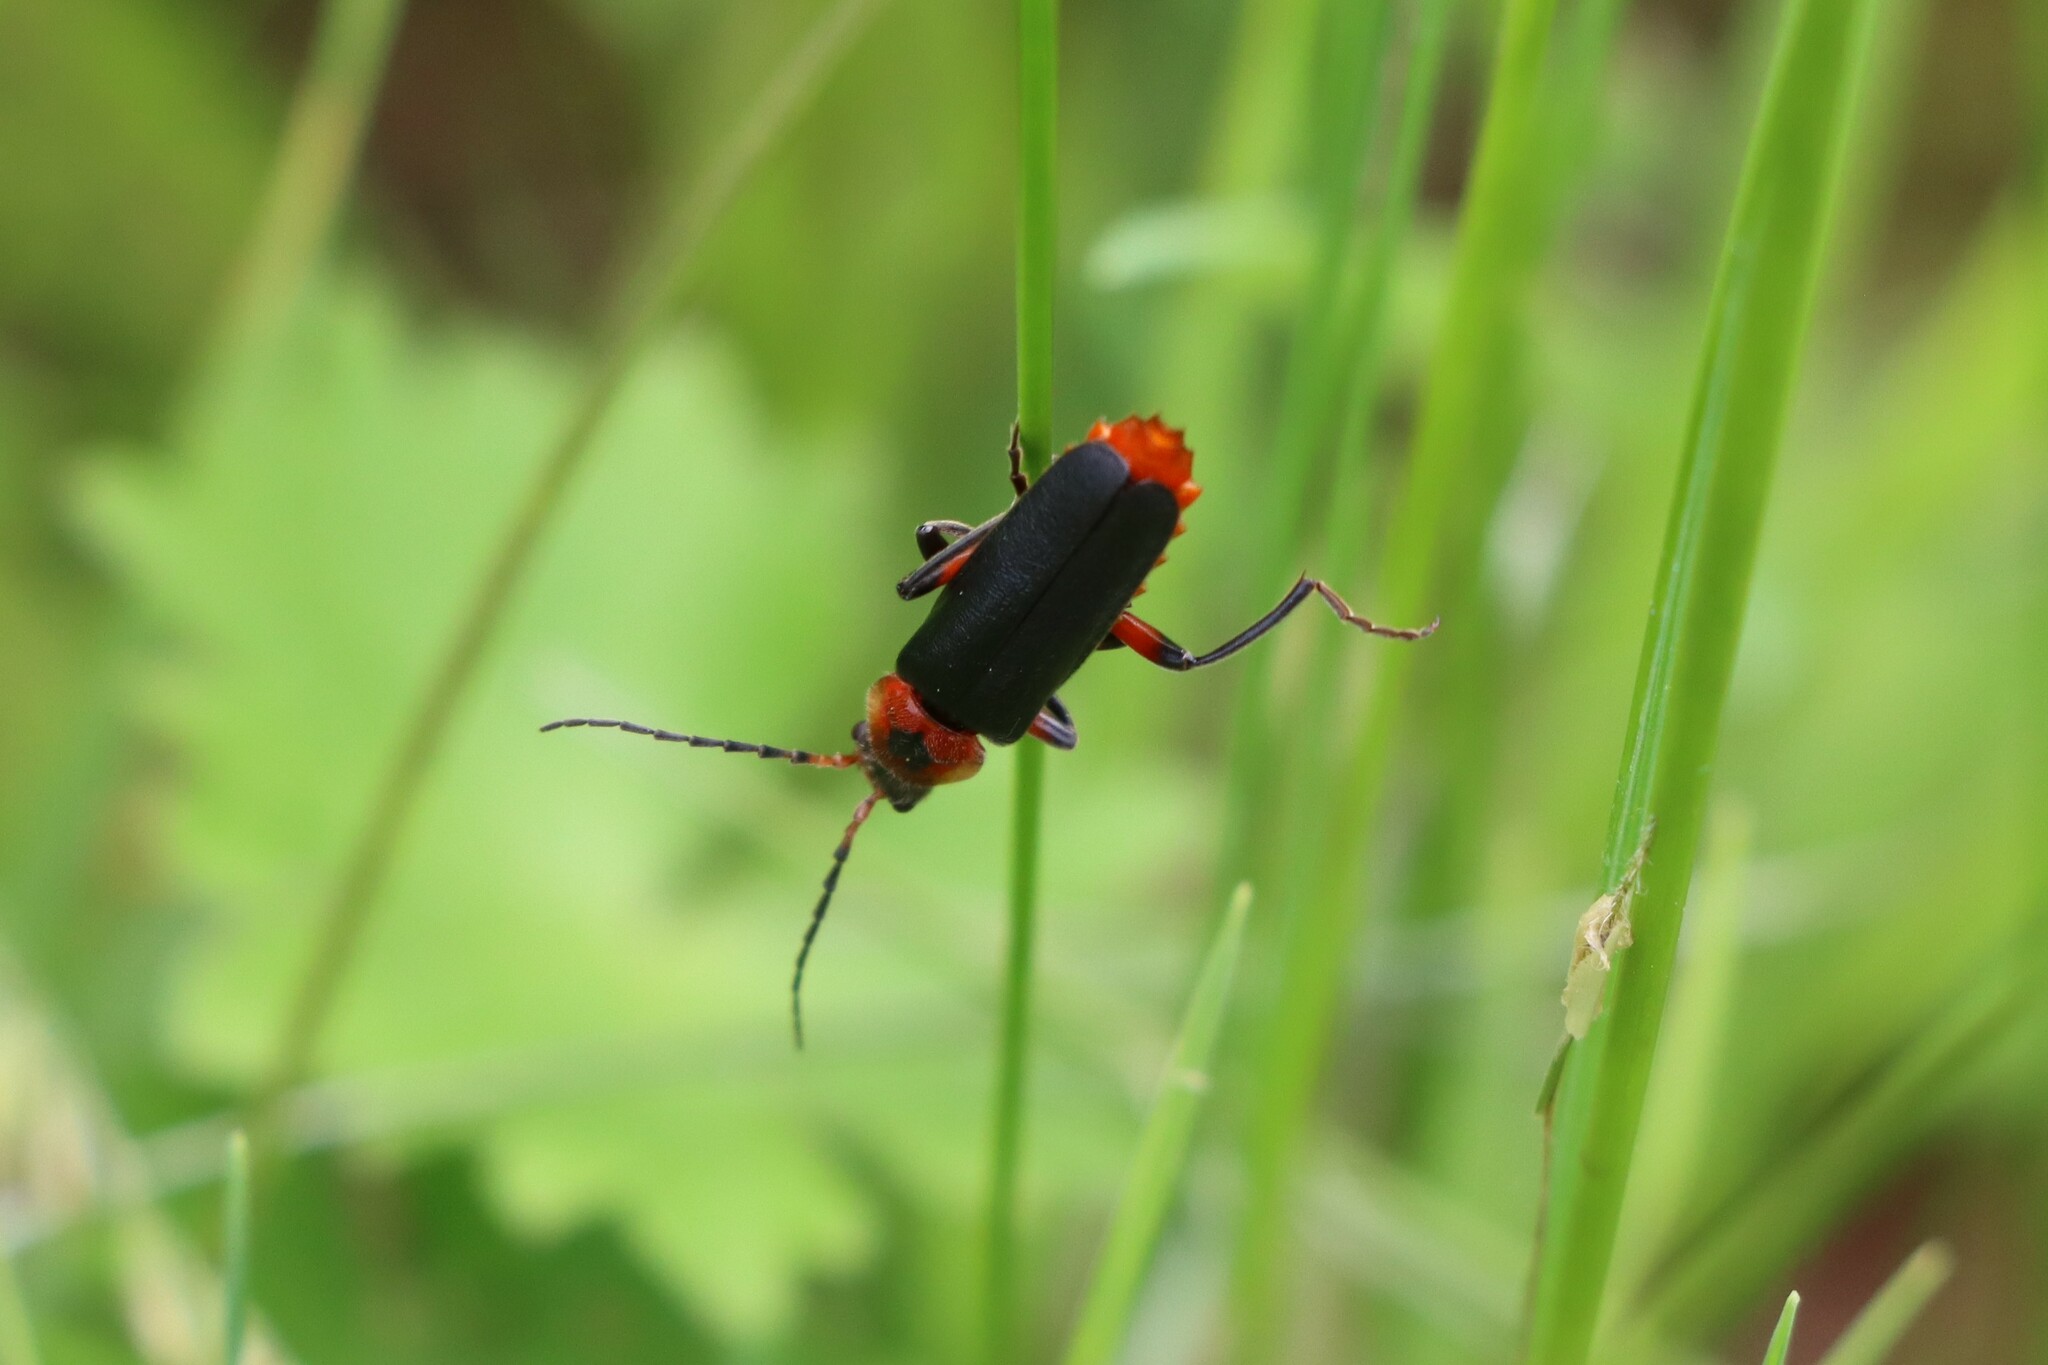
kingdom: Animalia
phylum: Arthropoda
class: Insecta
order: Coleoptera
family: Cantharidae
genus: Cantharis
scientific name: Cantharis rustica
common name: Soldier beetle
